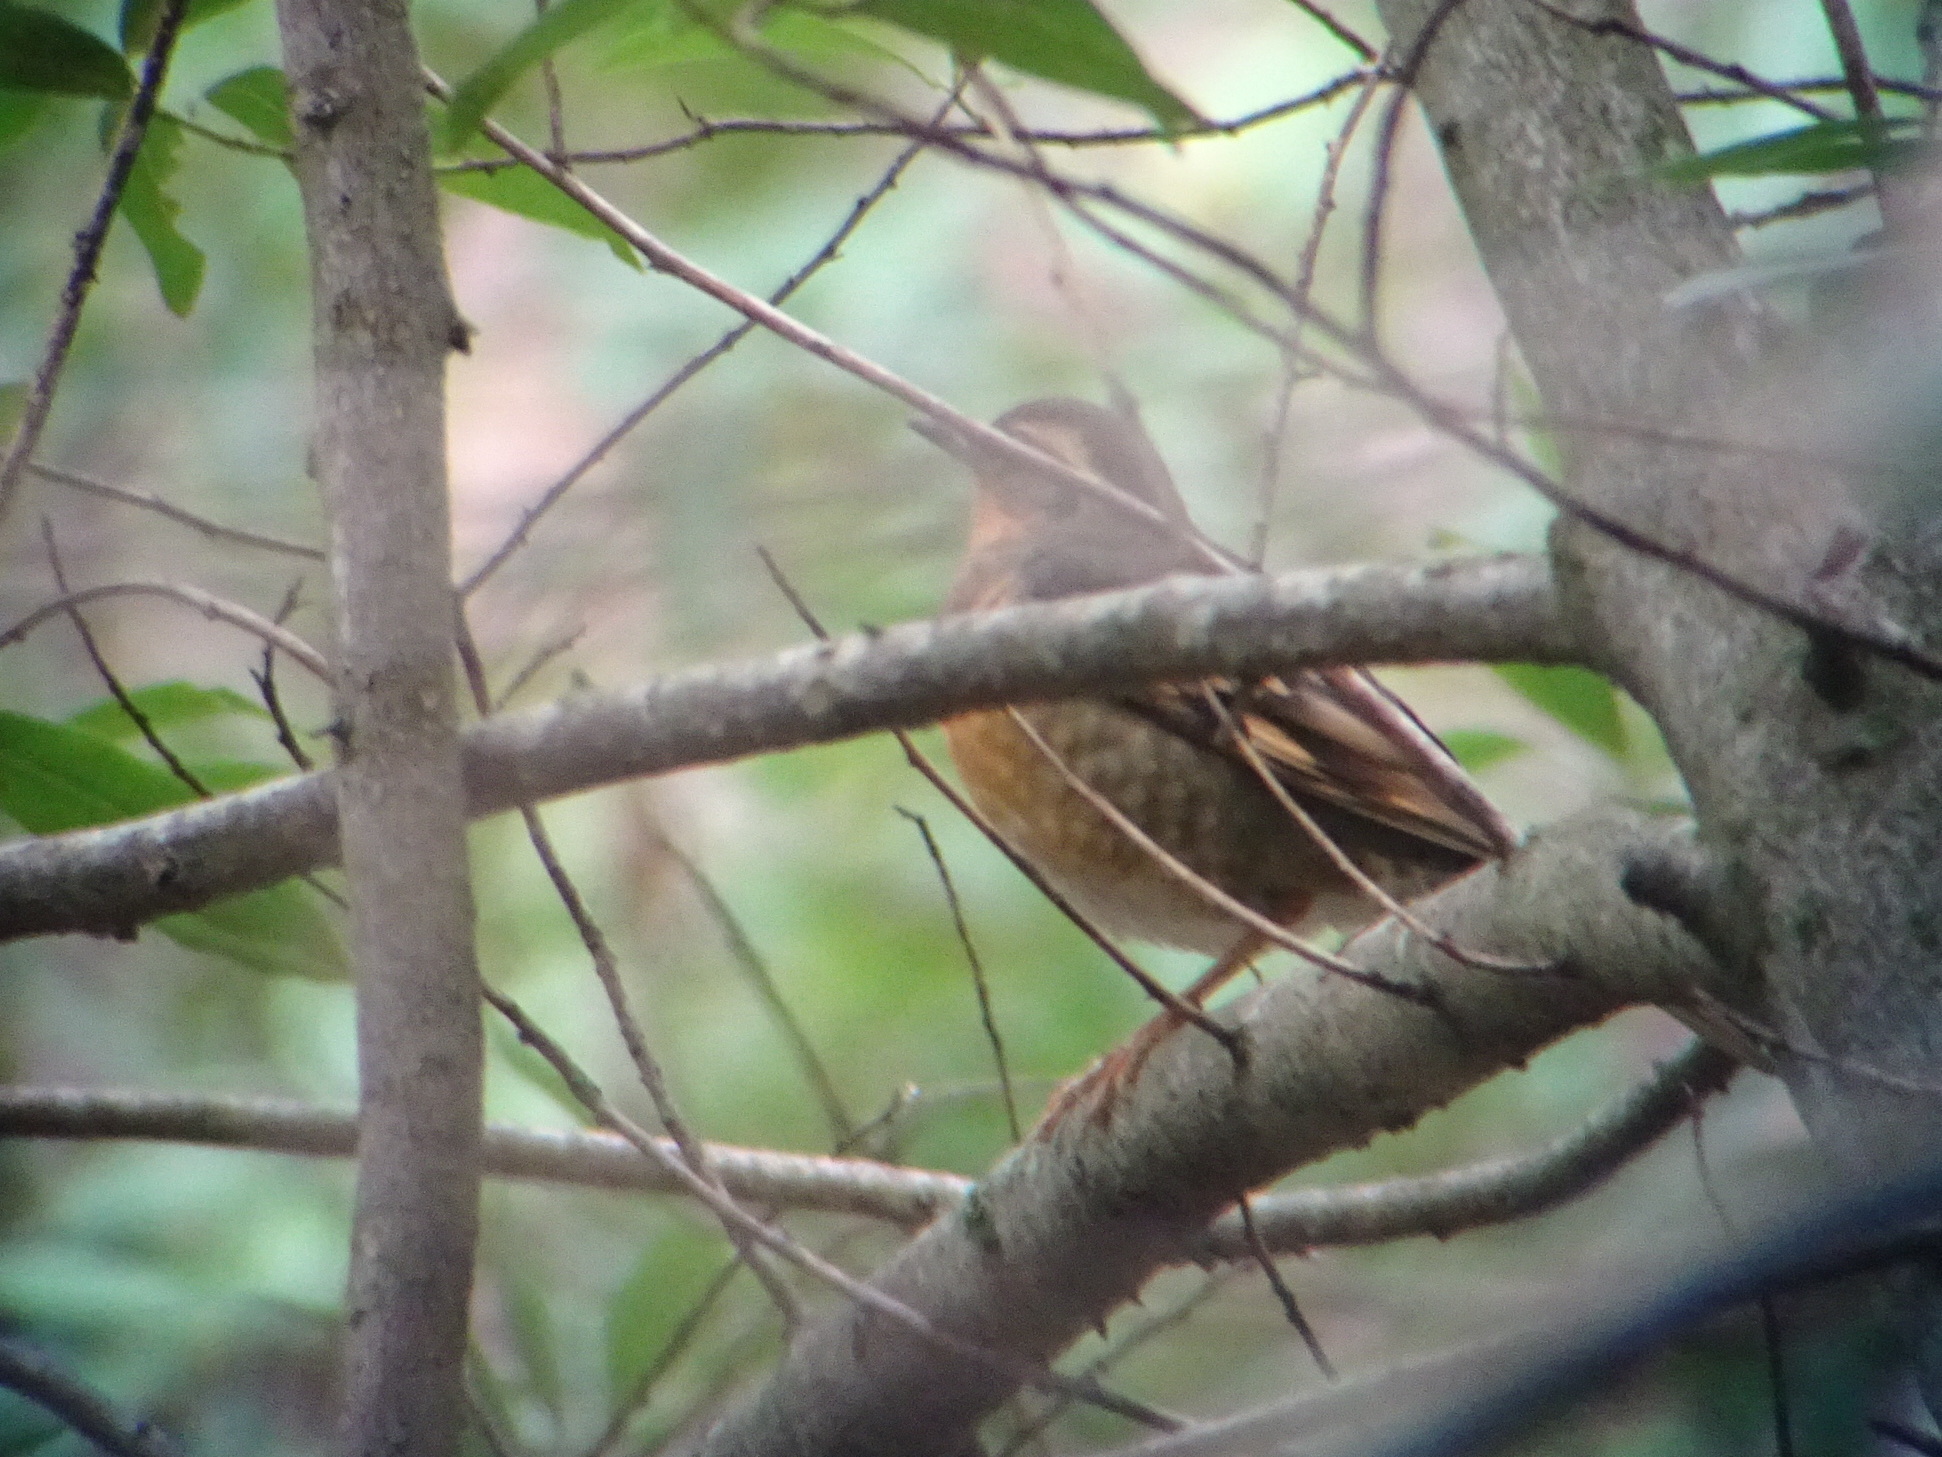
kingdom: Animalia
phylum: Chordata
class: Aves
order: Passeriformes
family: Turdidae
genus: Ixoreus
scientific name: Ixoreus naevius
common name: Varied thrush
